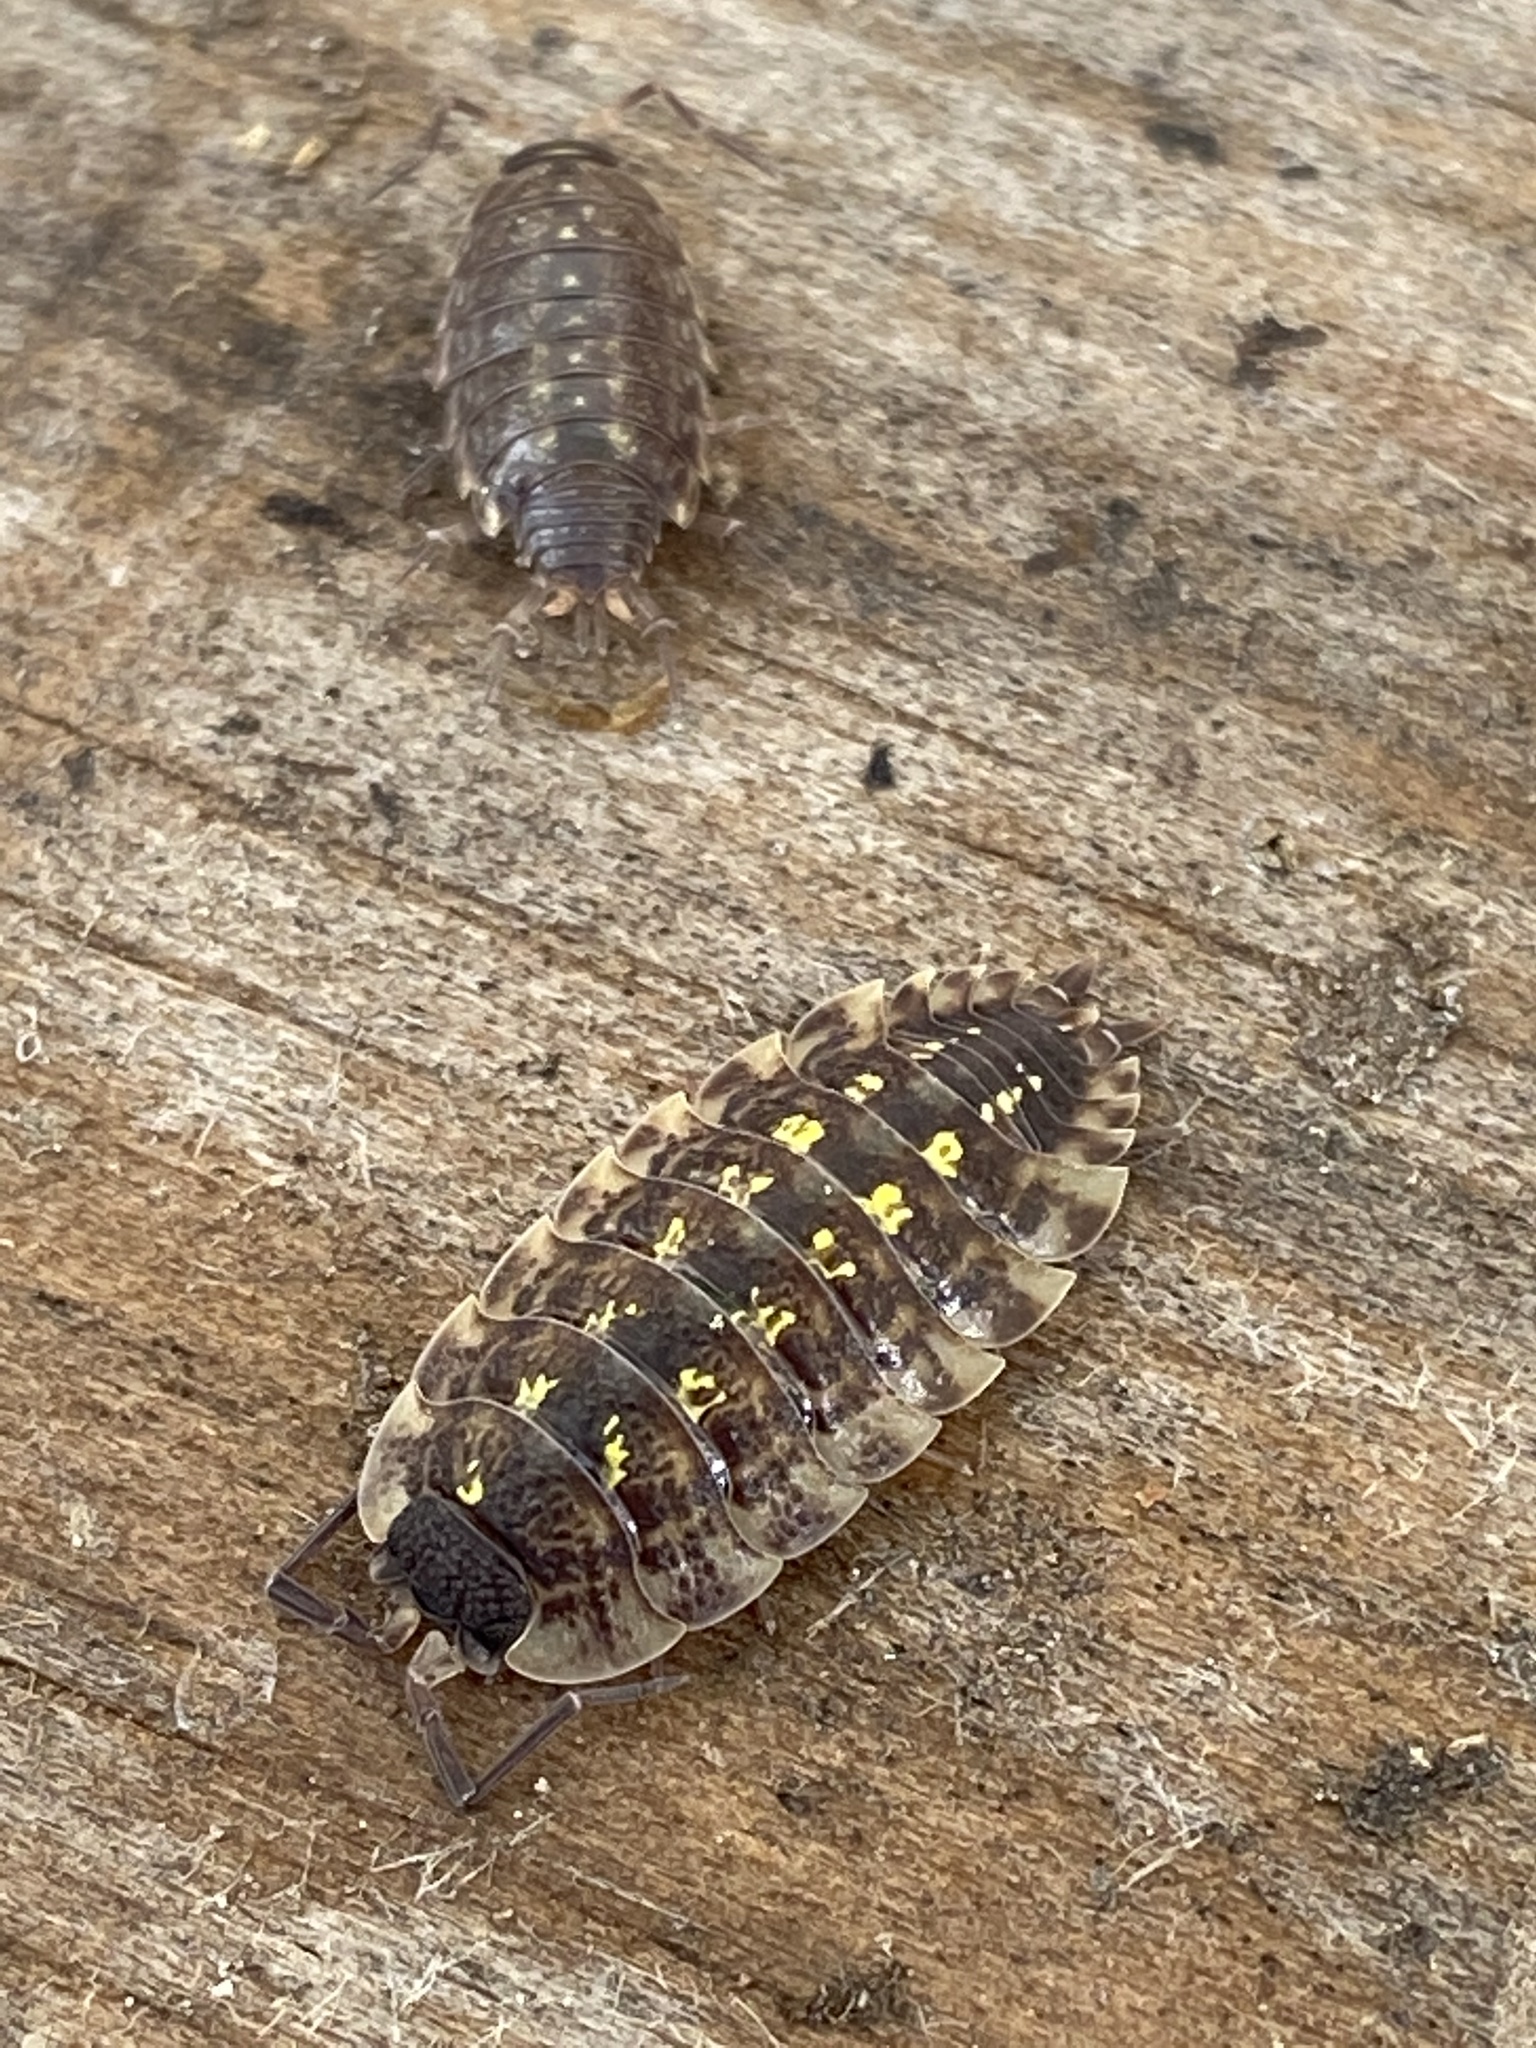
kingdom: Animalia
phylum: Arthropoda
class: Malacostraca
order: Isopoda
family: Porcellionidae
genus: Porcellio
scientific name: Porcellio spinicornis
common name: Painted woodlouse
